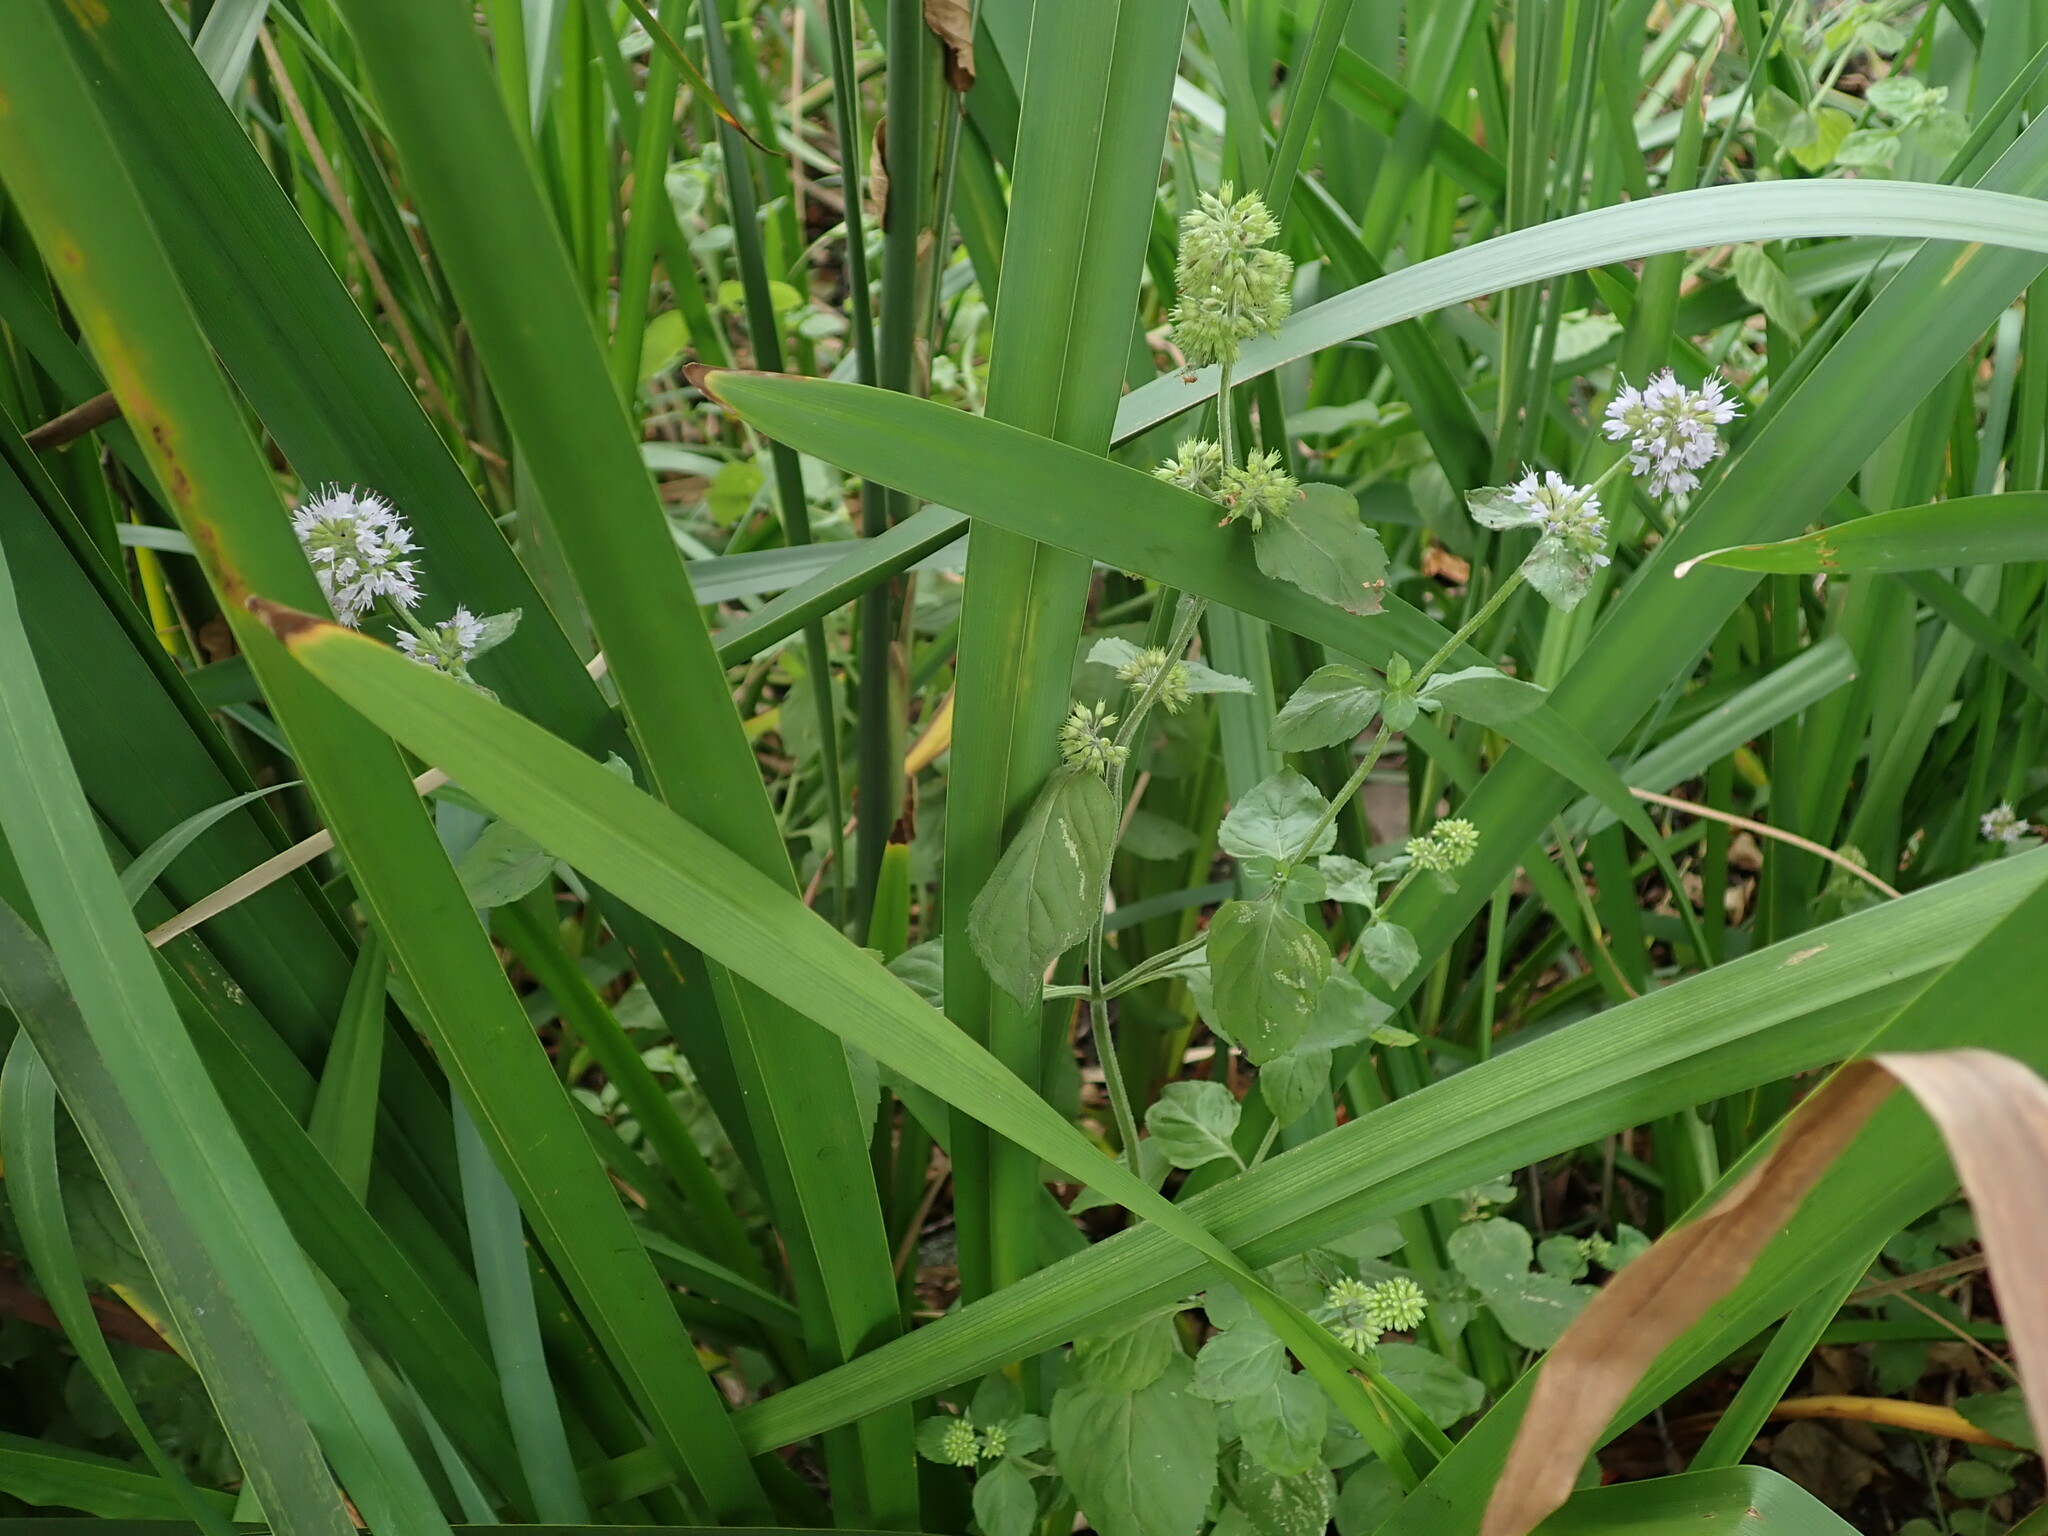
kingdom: Plantae
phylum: Tracheophyta
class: Magnoliopsida
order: Lamiales
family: Lamiaceae
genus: Mentha
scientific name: Mentha aquatica
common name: Water mint
